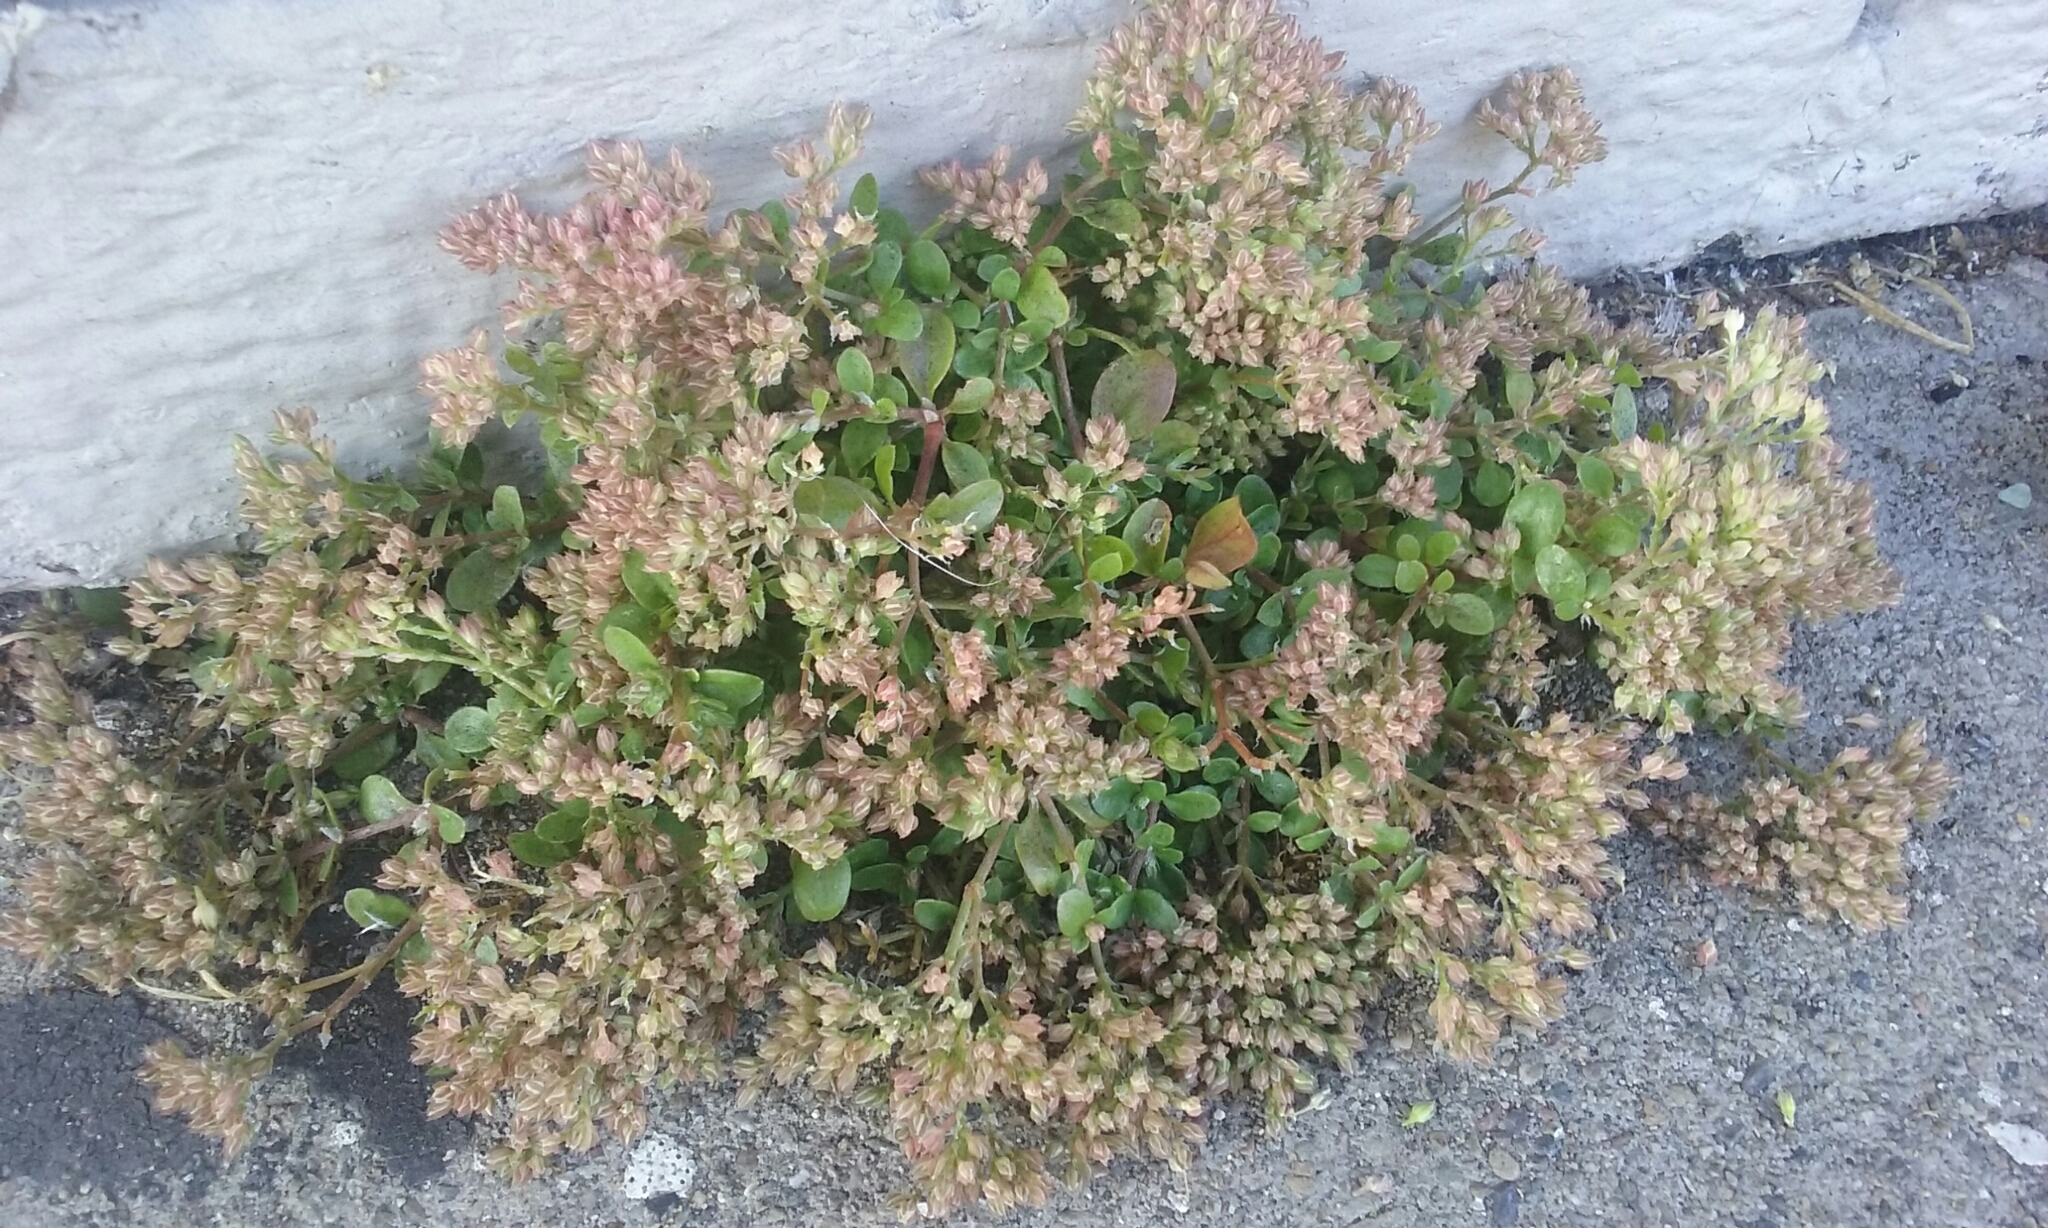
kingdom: Plantae
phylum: Tracheophyta
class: Magnoliopsida
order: Caryophyllales
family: Caryophyllaceae
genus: Polycarpon
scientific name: Polycarpon tetraphyllum
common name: Four-leaved all-seed
